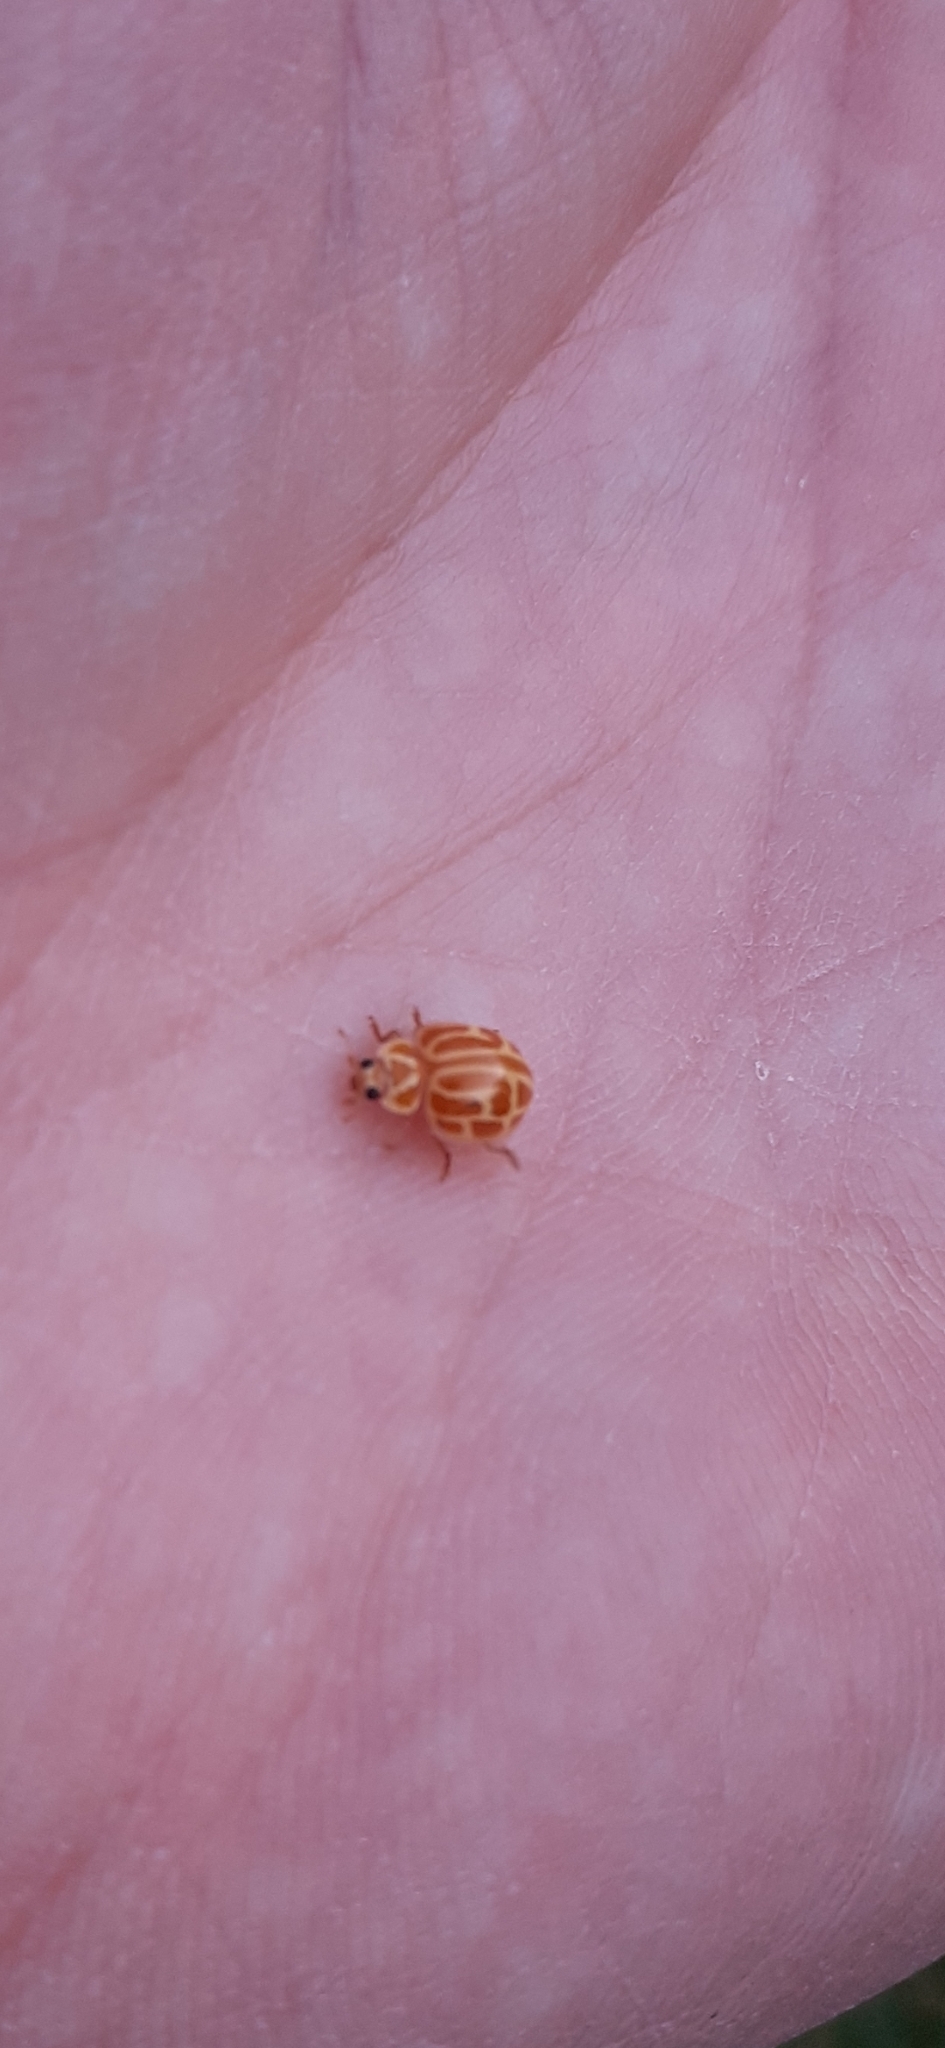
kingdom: Animalia
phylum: Arthropoda
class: Insecta
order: Coleoptera
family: Coccinellidae
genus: Neocalvia
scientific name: Neocalvia anastomozans
